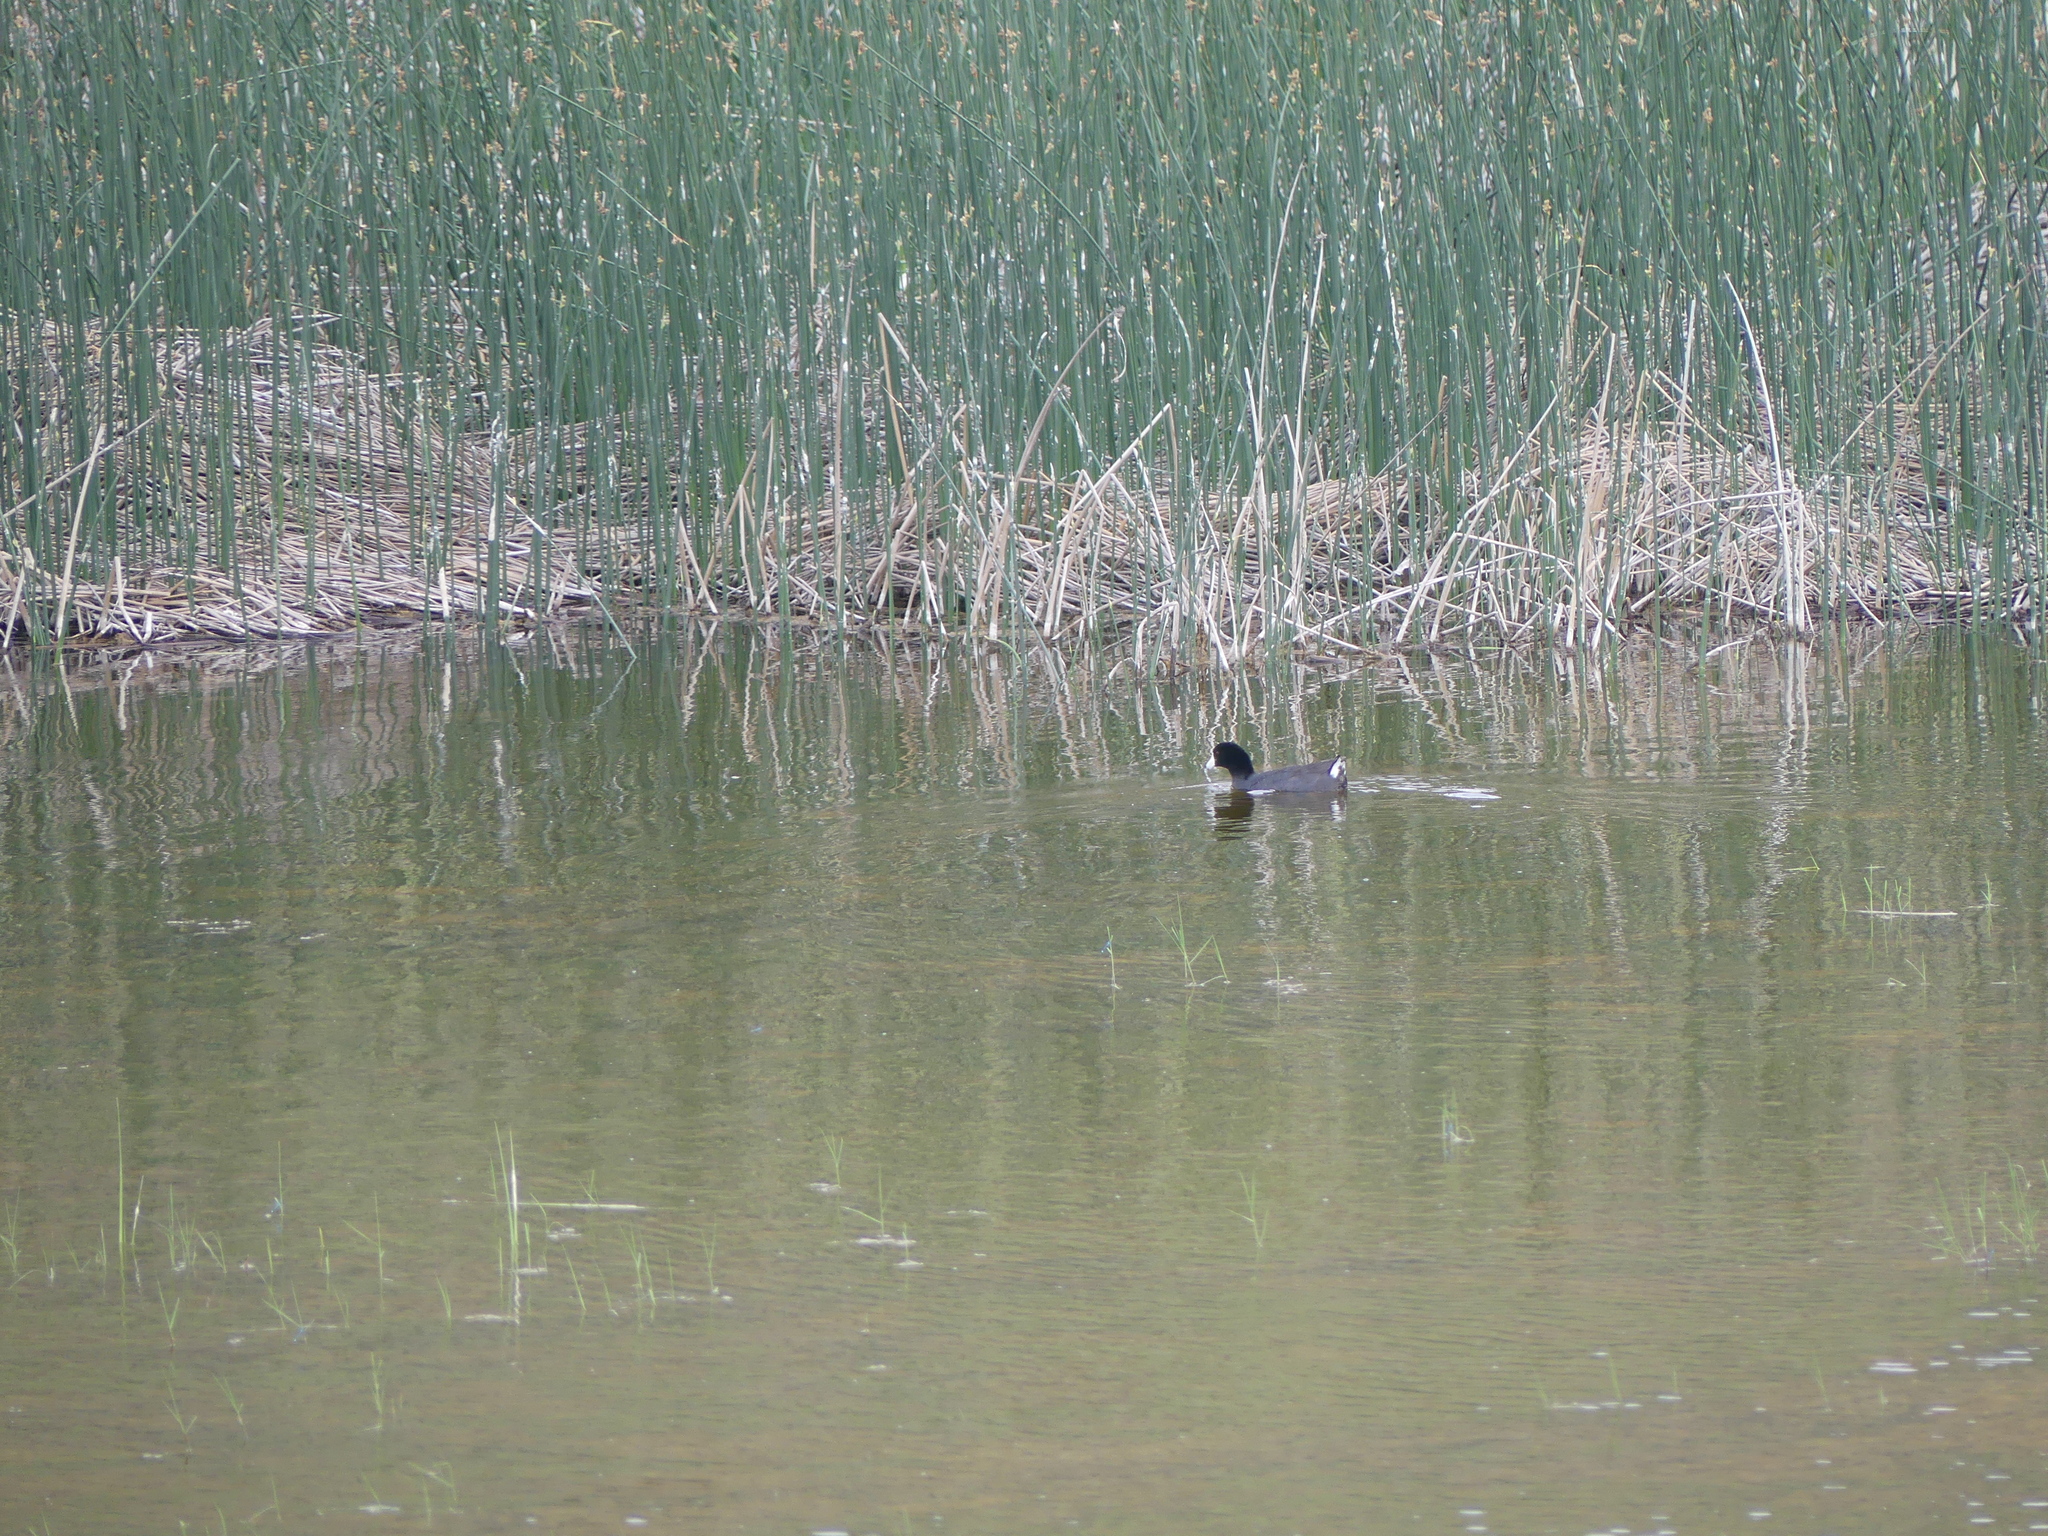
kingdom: Animalia
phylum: Chordata
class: Aves
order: Gruiformes
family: Rallidae
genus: Fulica
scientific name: Fulica americana
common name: American coot
